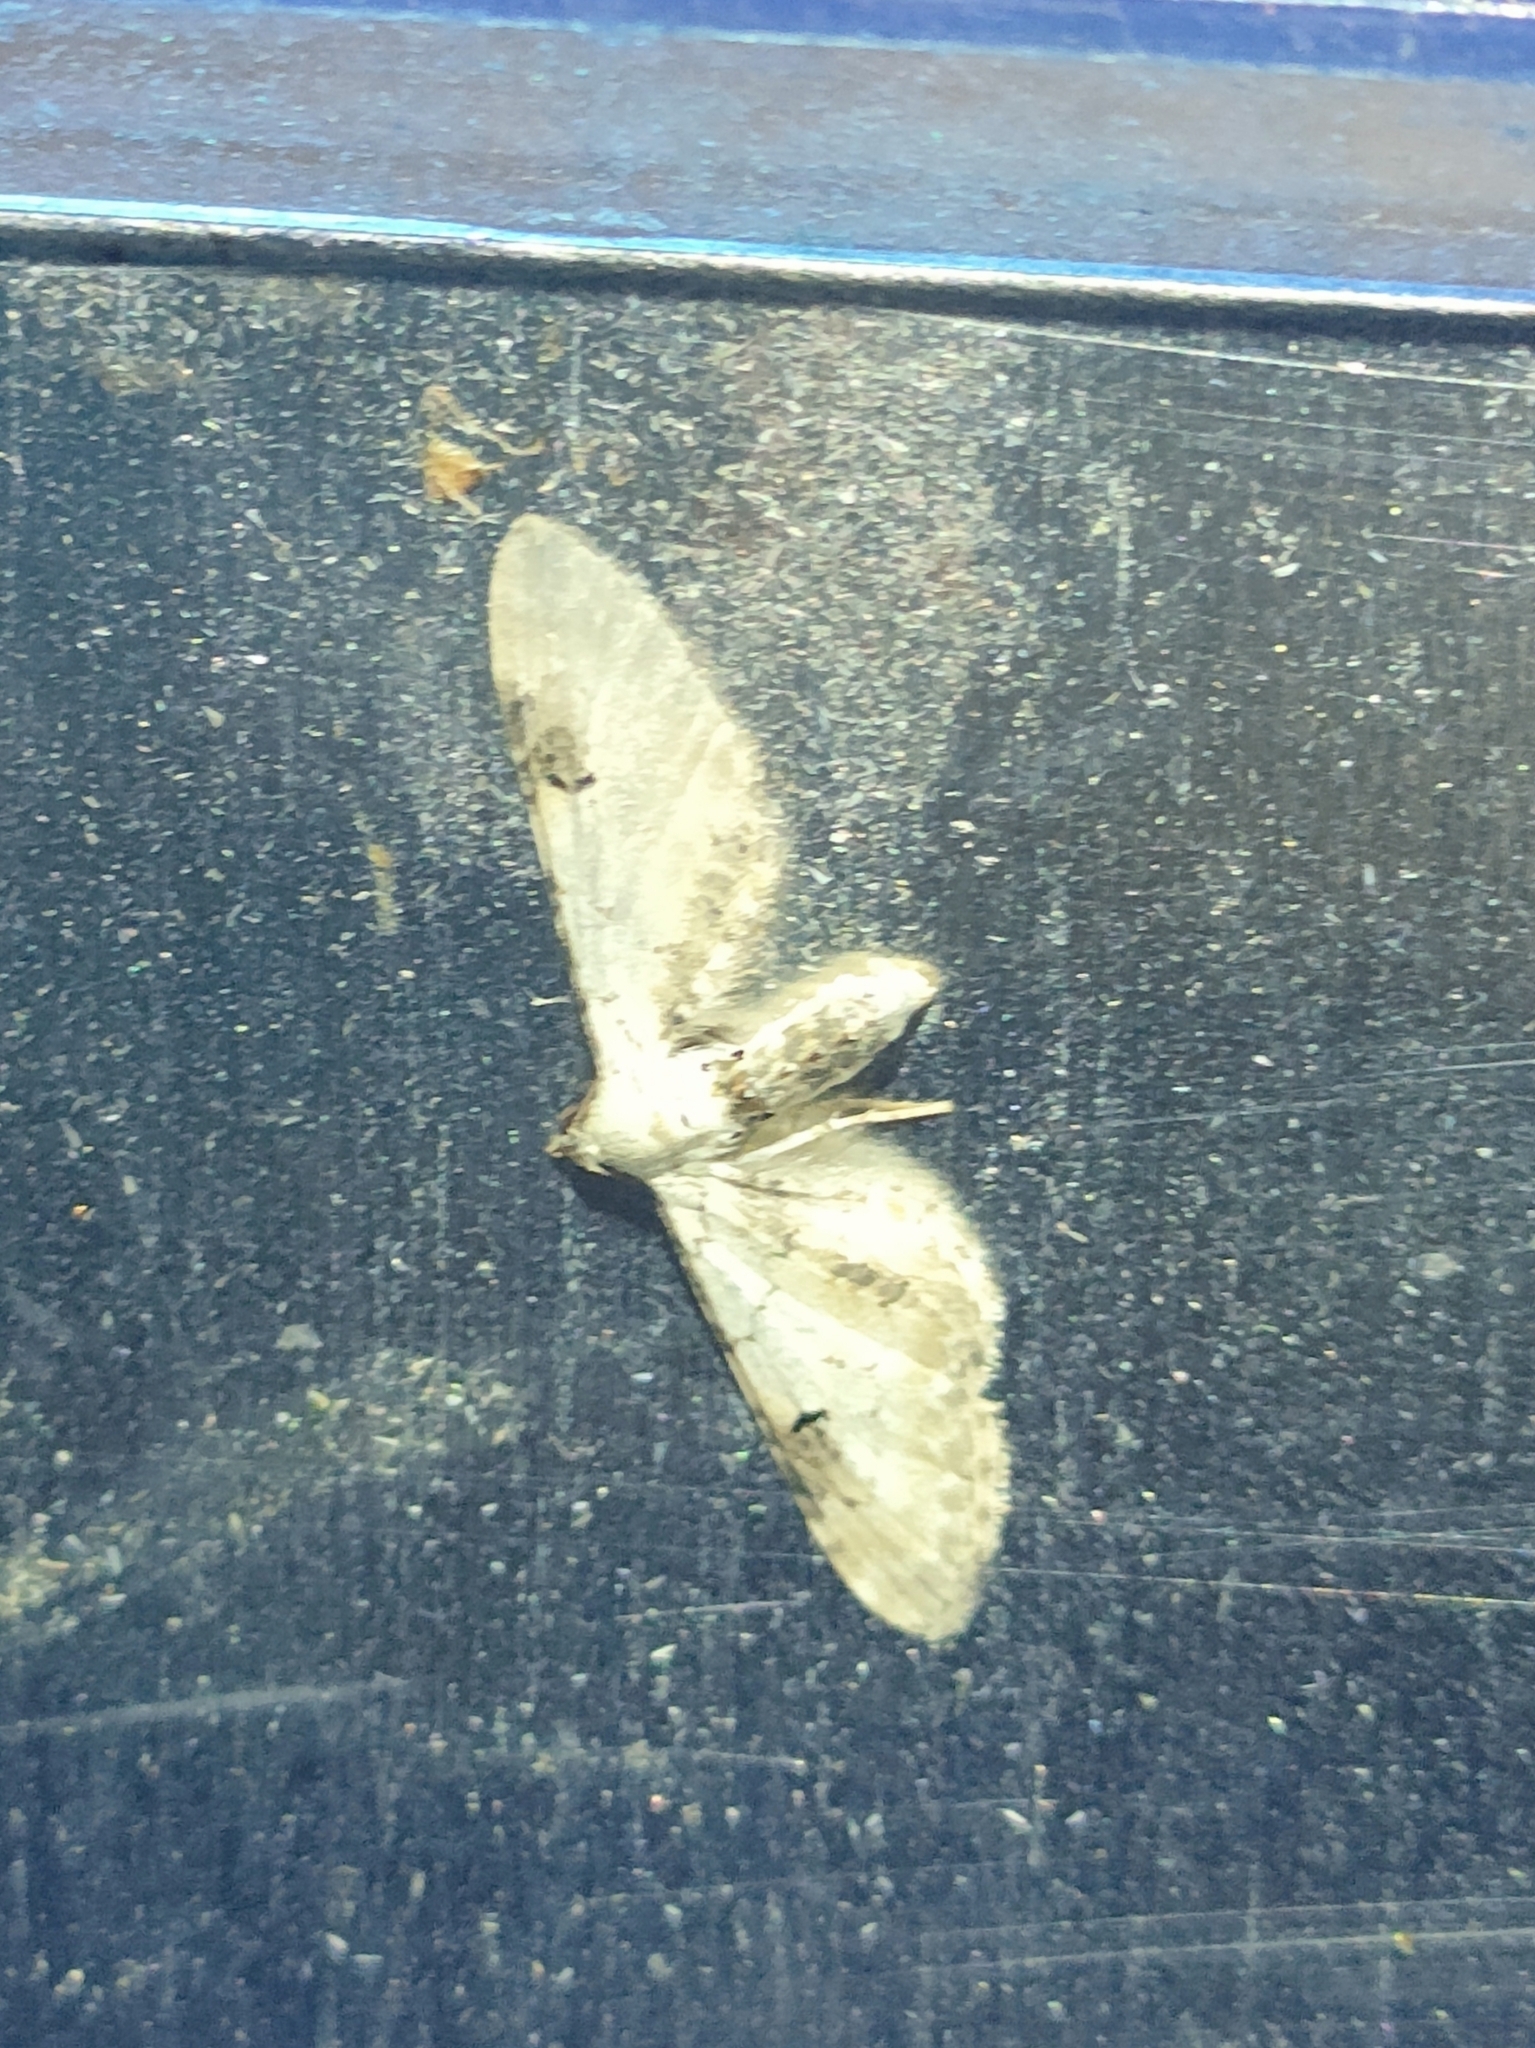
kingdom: Animalia
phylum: Arthropoda
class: Insecta
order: Lepidoptera
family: Geometridae
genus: Eupithecia
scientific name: Eupithecia centaureata
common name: Lime-speck pug
